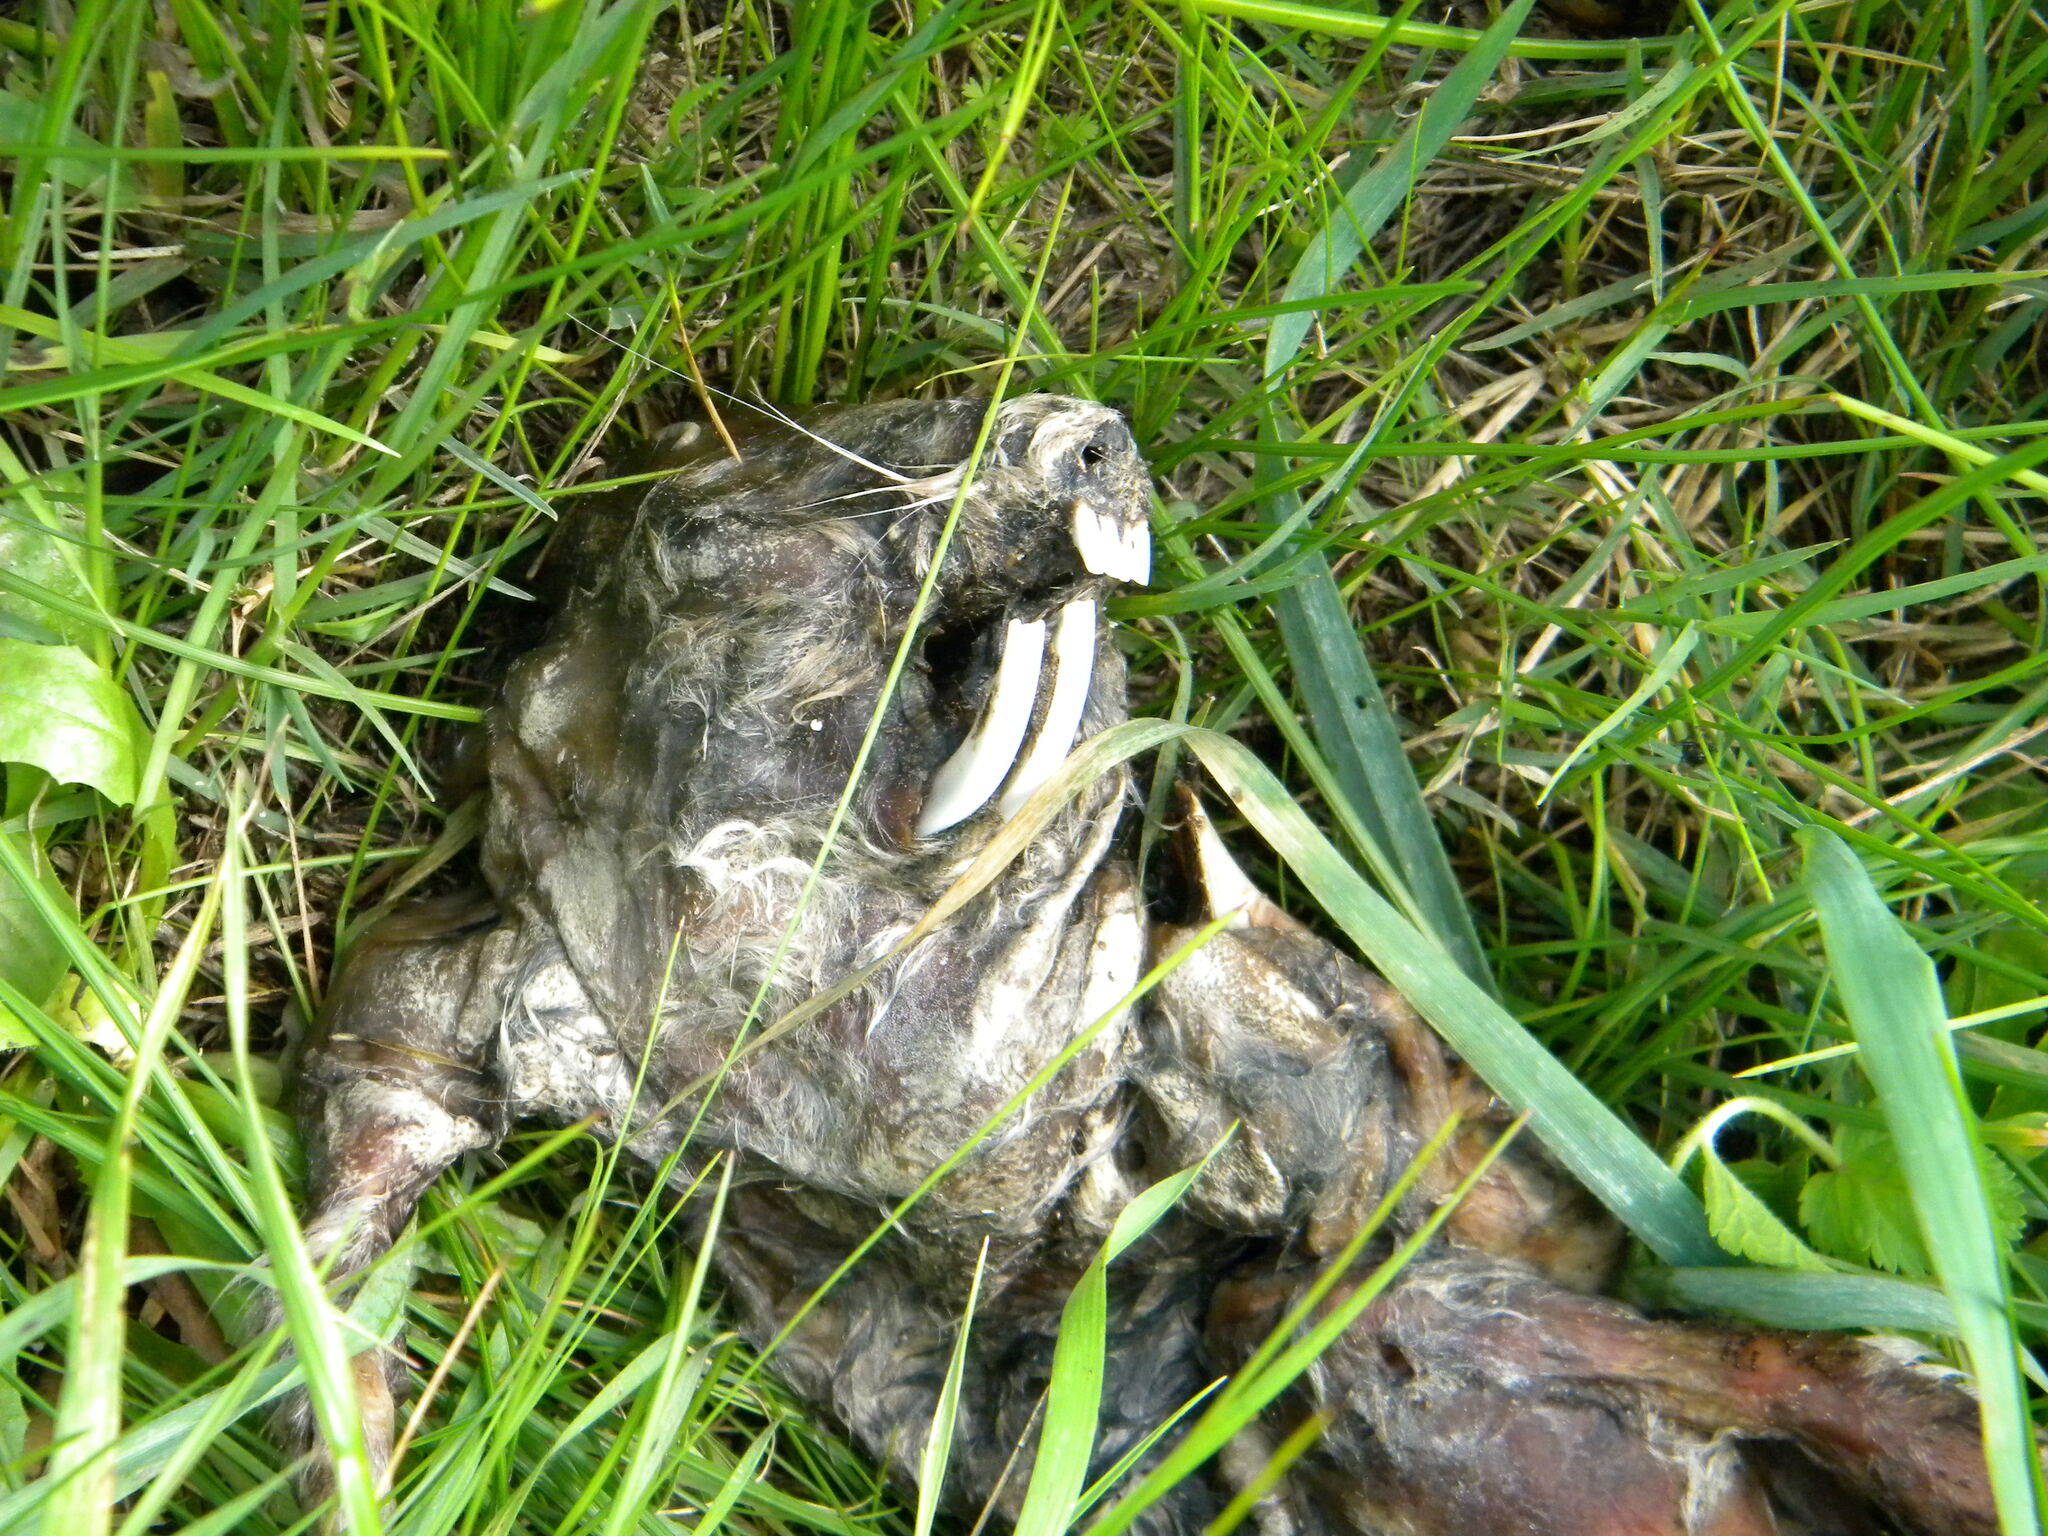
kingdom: Animalia
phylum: Chordata
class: Mammalia
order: Rodentia
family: Bathyergidae
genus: Bathyergus
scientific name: Bathyergus suillus
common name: Cape dune mole rat
